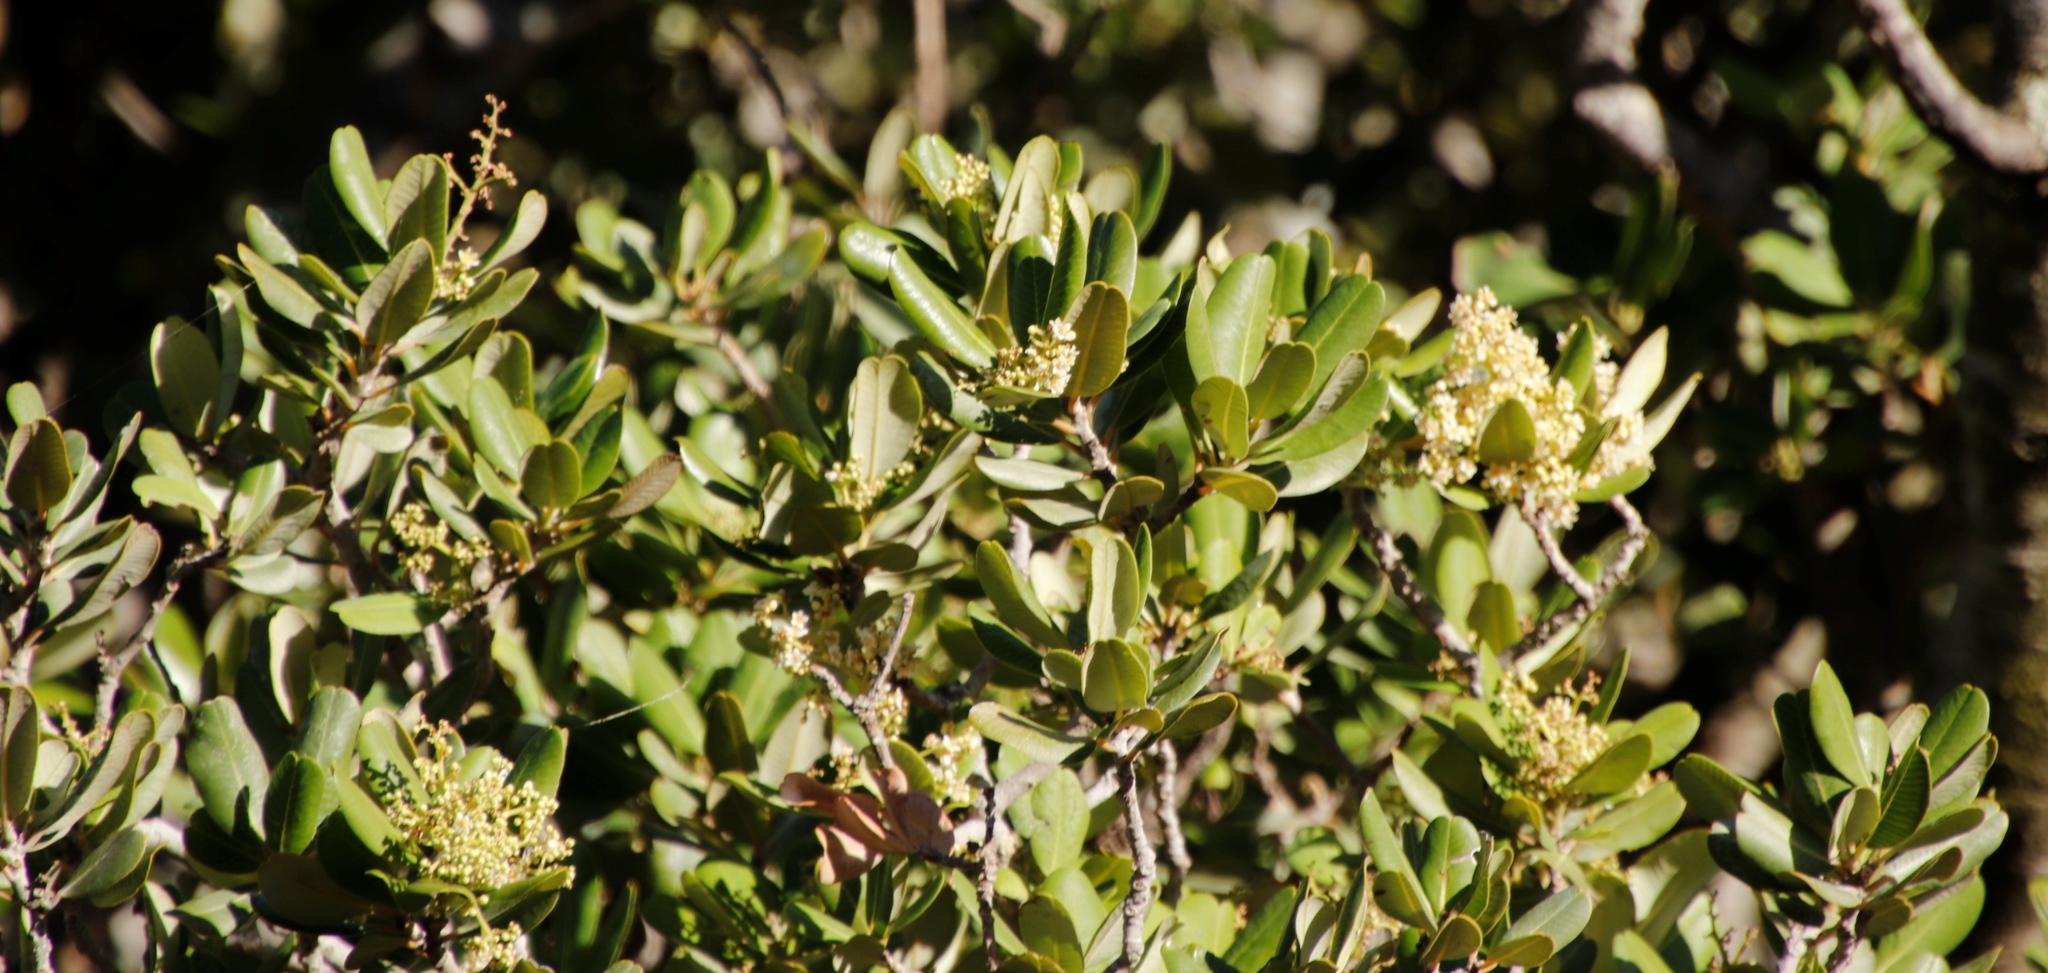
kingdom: Plantae
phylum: Tracheophyta
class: Magnoliopsida
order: Sapindales
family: Anacardiaceae
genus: Heeria
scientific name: Heeria argentea
